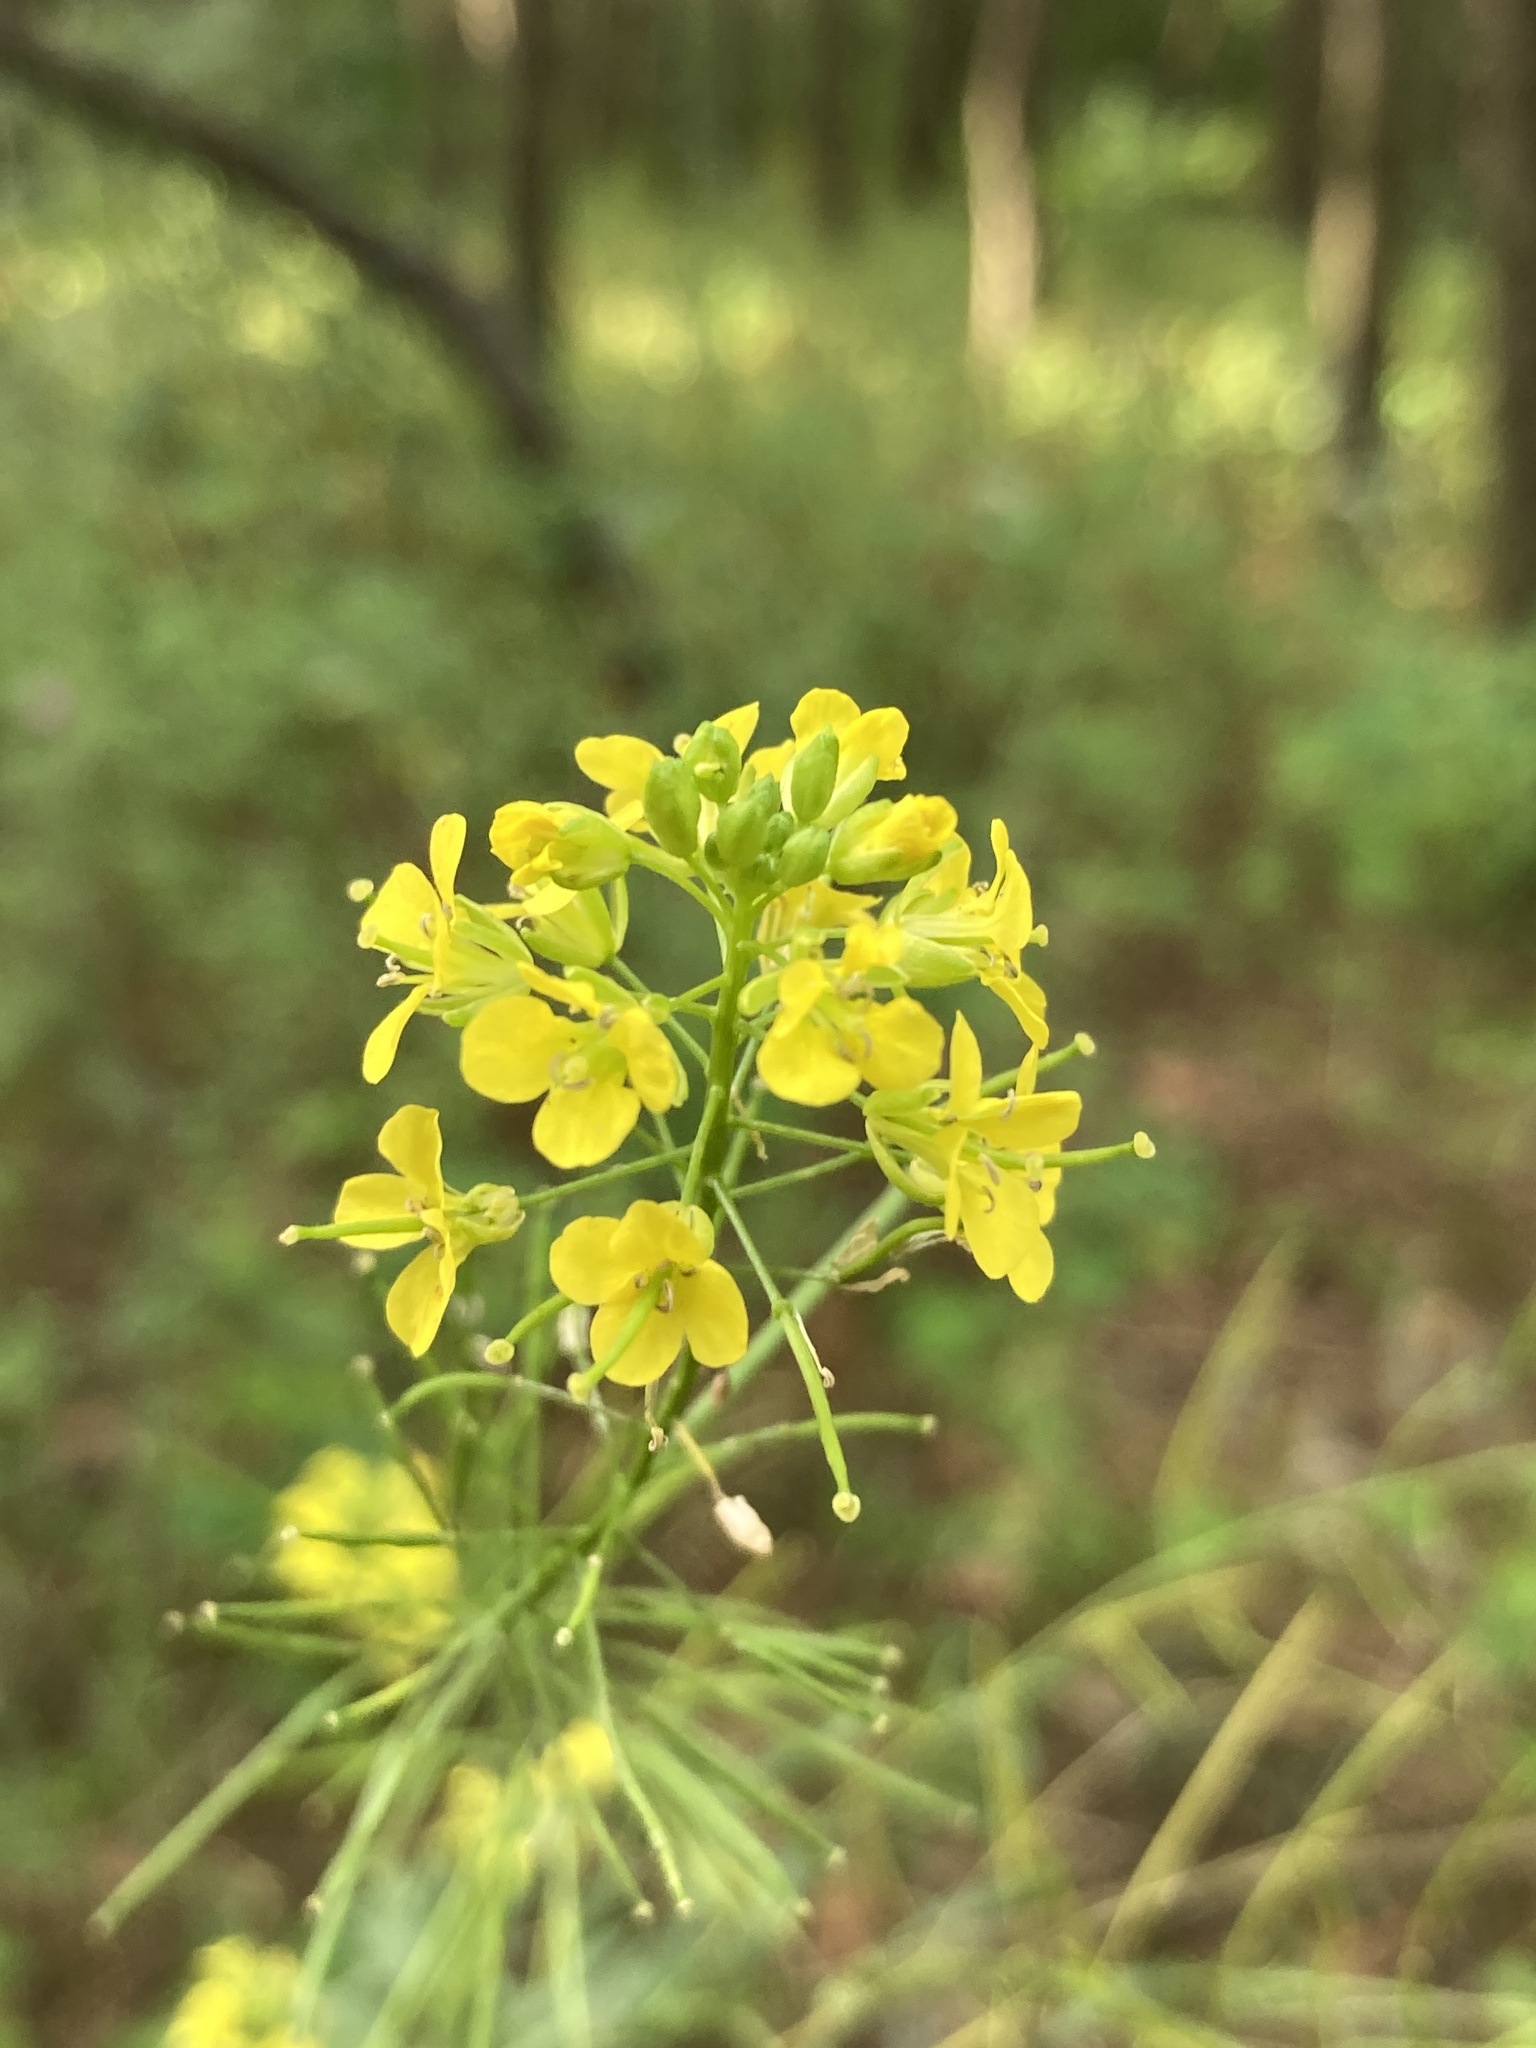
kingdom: Plantae
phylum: Tracheophyta
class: Magnoliopsida
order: Brassicales
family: Brassicaceae
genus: Sisymbrium
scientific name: Sisymbrium loeselii
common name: False london-rocket
